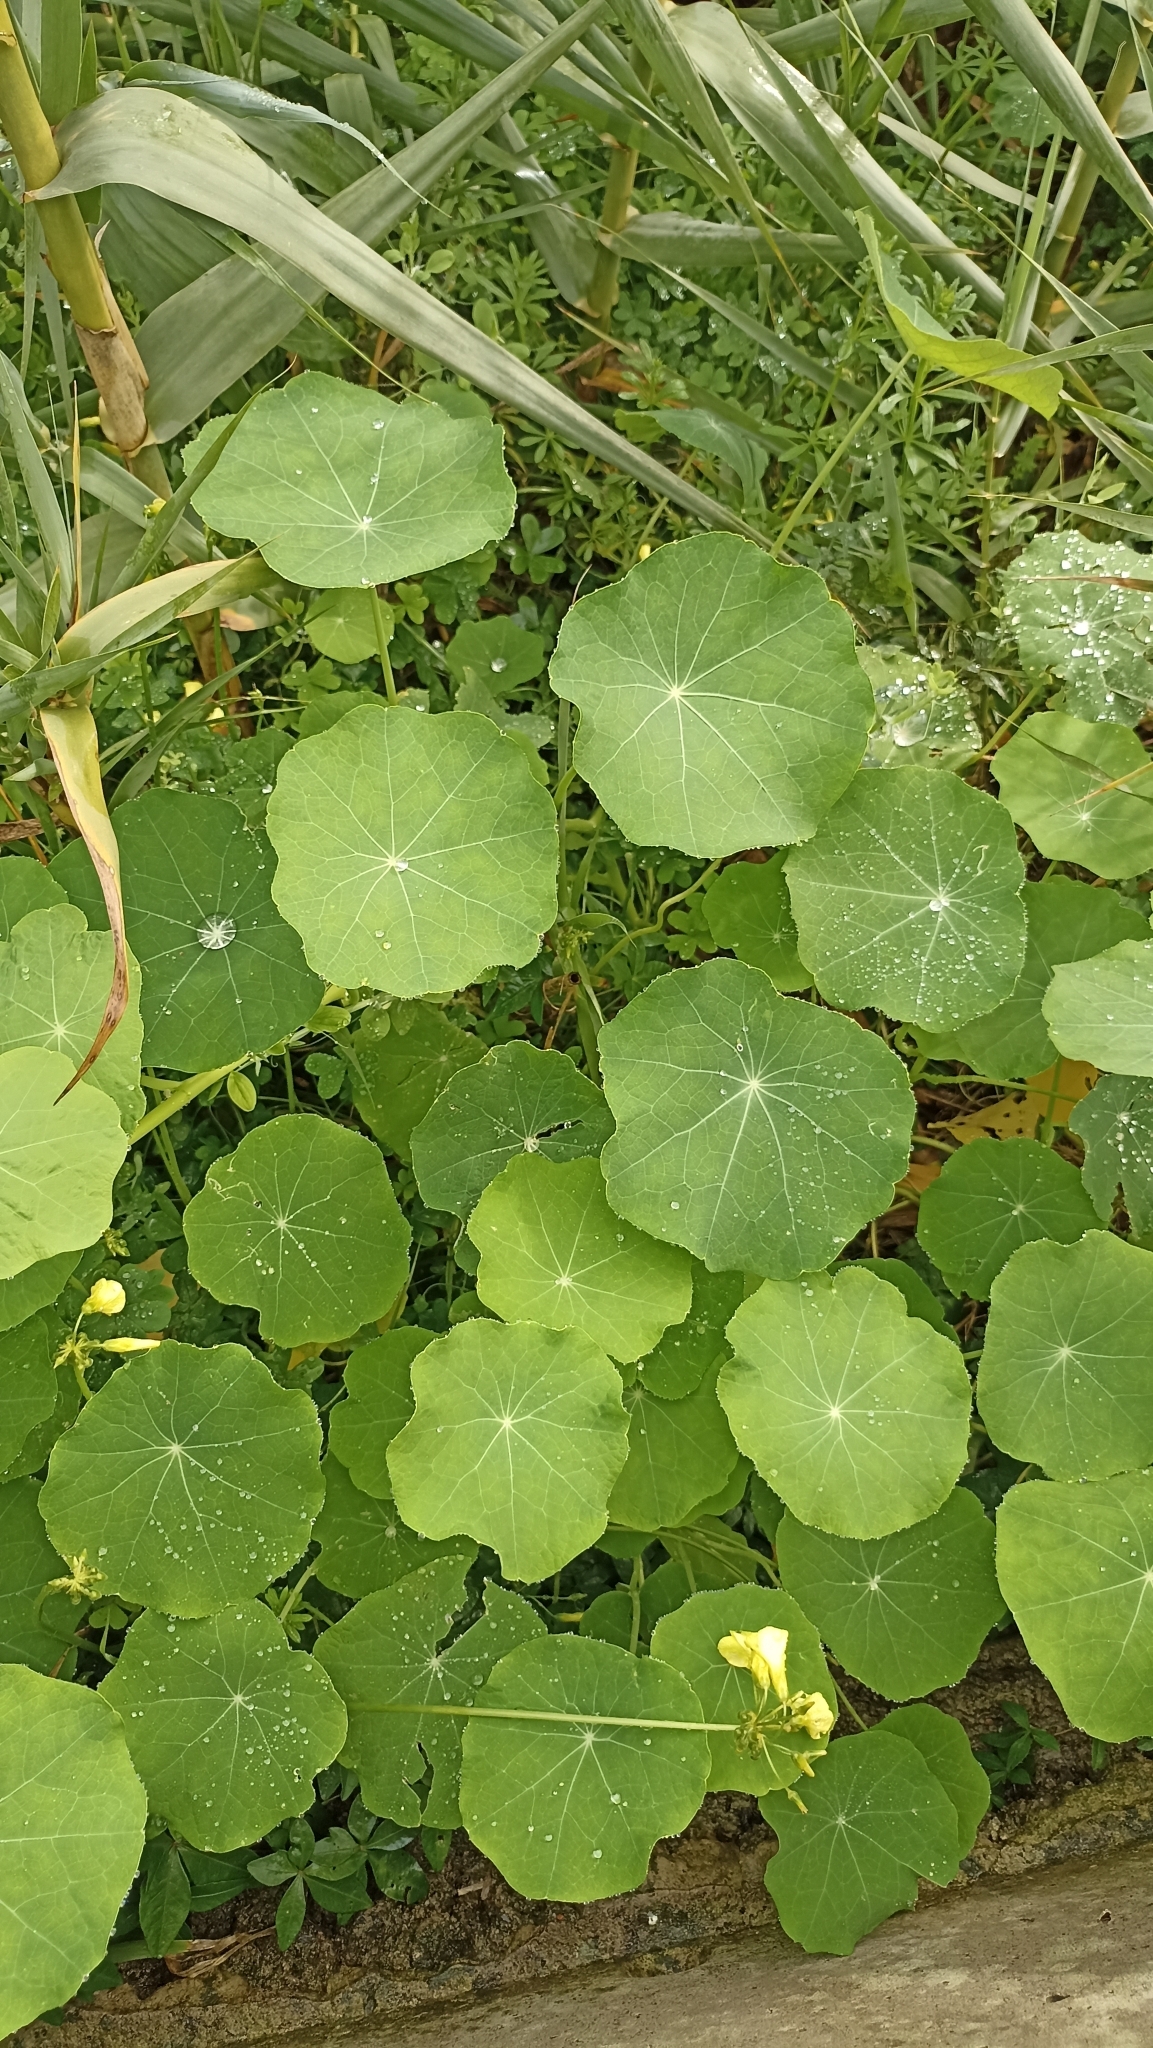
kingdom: Plantae
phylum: Tracheophyta
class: Magnoliopsida
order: Brassicales
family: Tropaeolaceae
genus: Tropaeolum
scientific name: Tropaeolum majus
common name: Nasturtium
